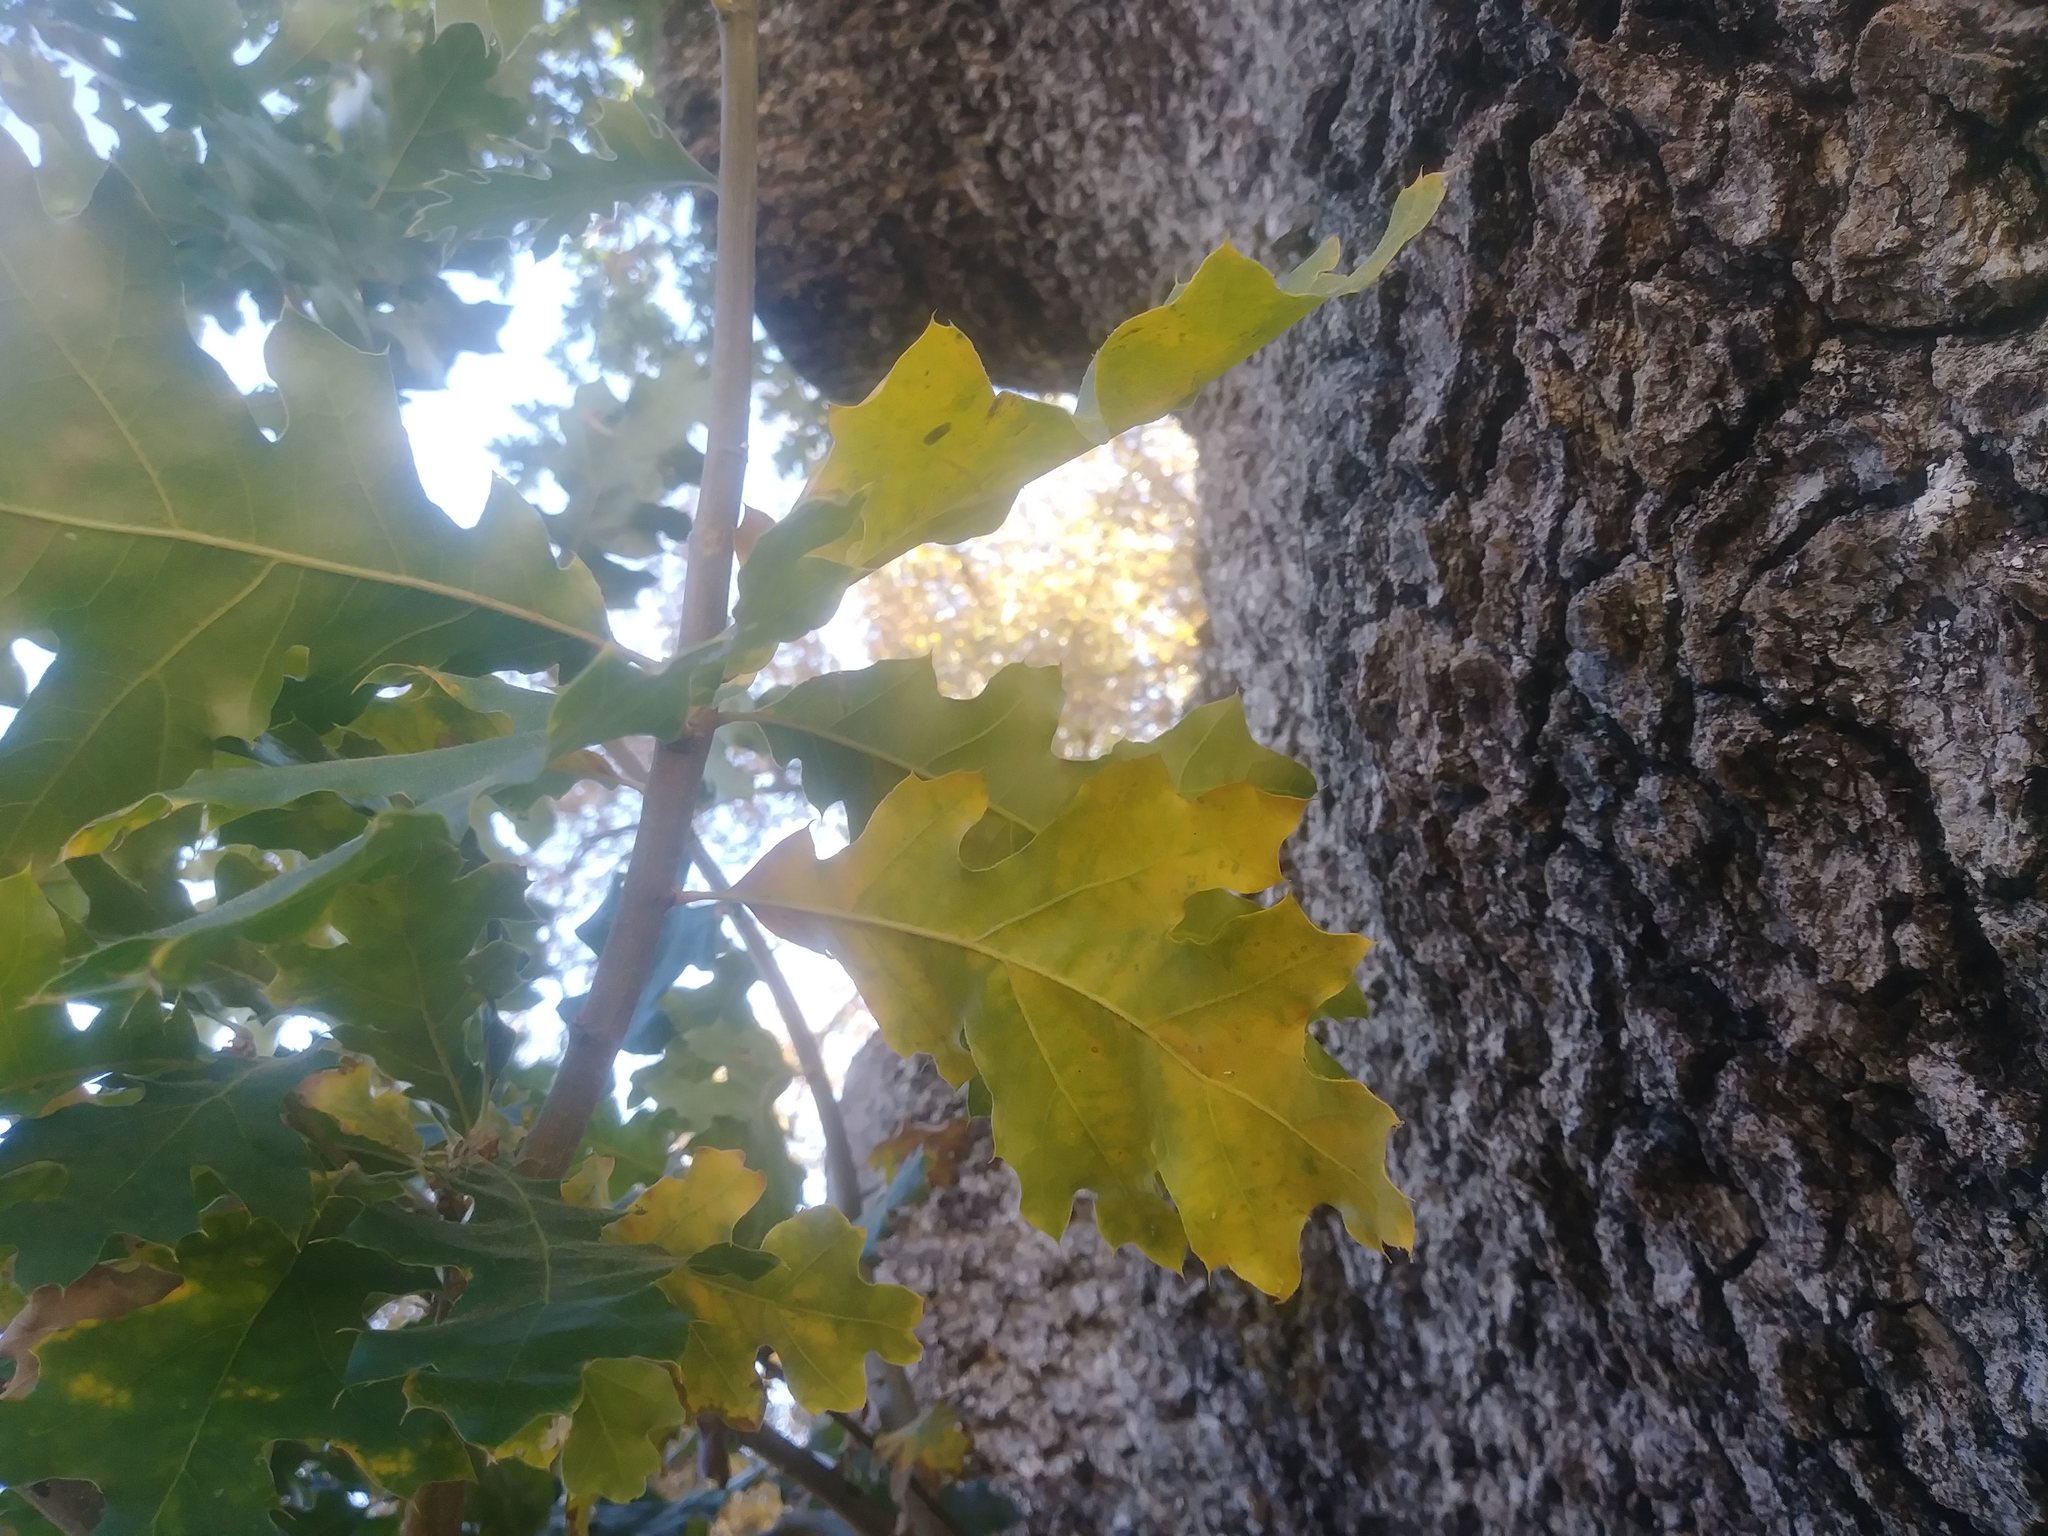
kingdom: Plantae
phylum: Tracheophyta
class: Magnoliopsida
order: Fagales
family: Fagaceae
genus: Quercus
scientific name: Quercus kelloggii
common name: California black oak
